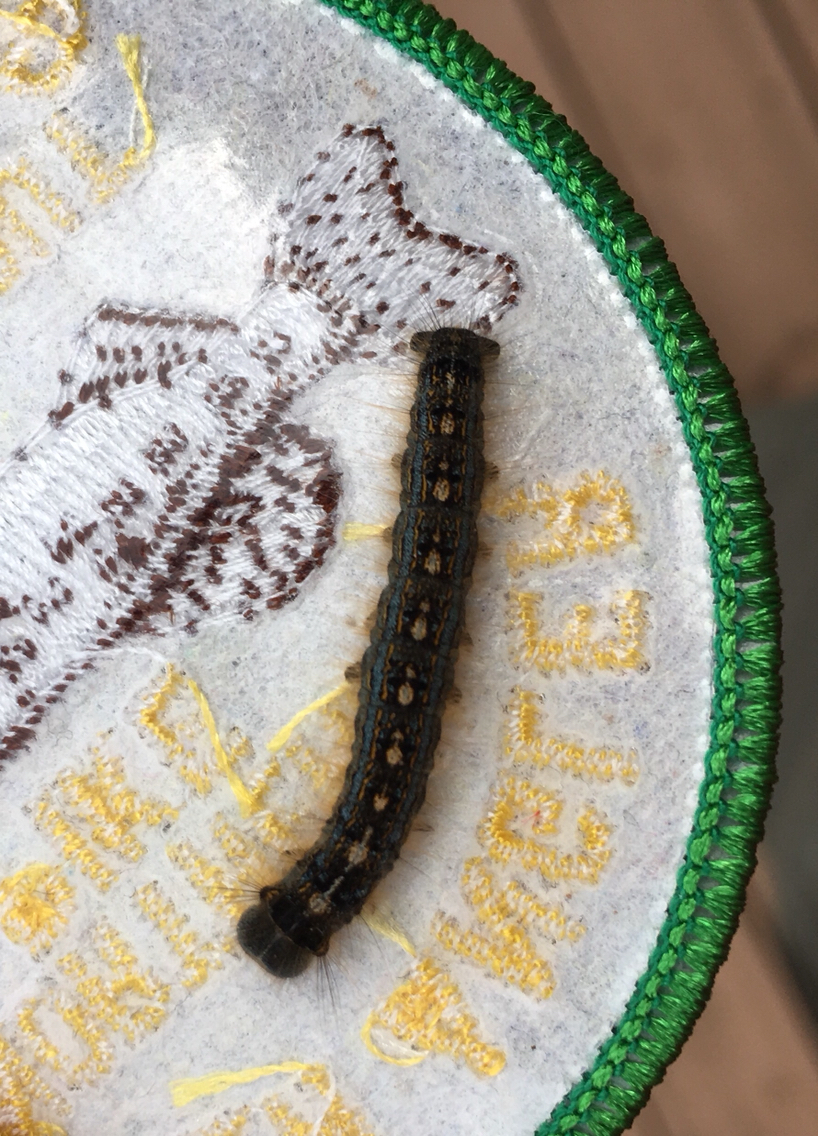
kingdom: Animalia
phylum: Arthropoda
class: Insecta
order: Lepidoptera
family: Lasiocampidae
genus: Malacosoma
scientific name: Malacosoma disstria
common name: Forest tent caterpillar
